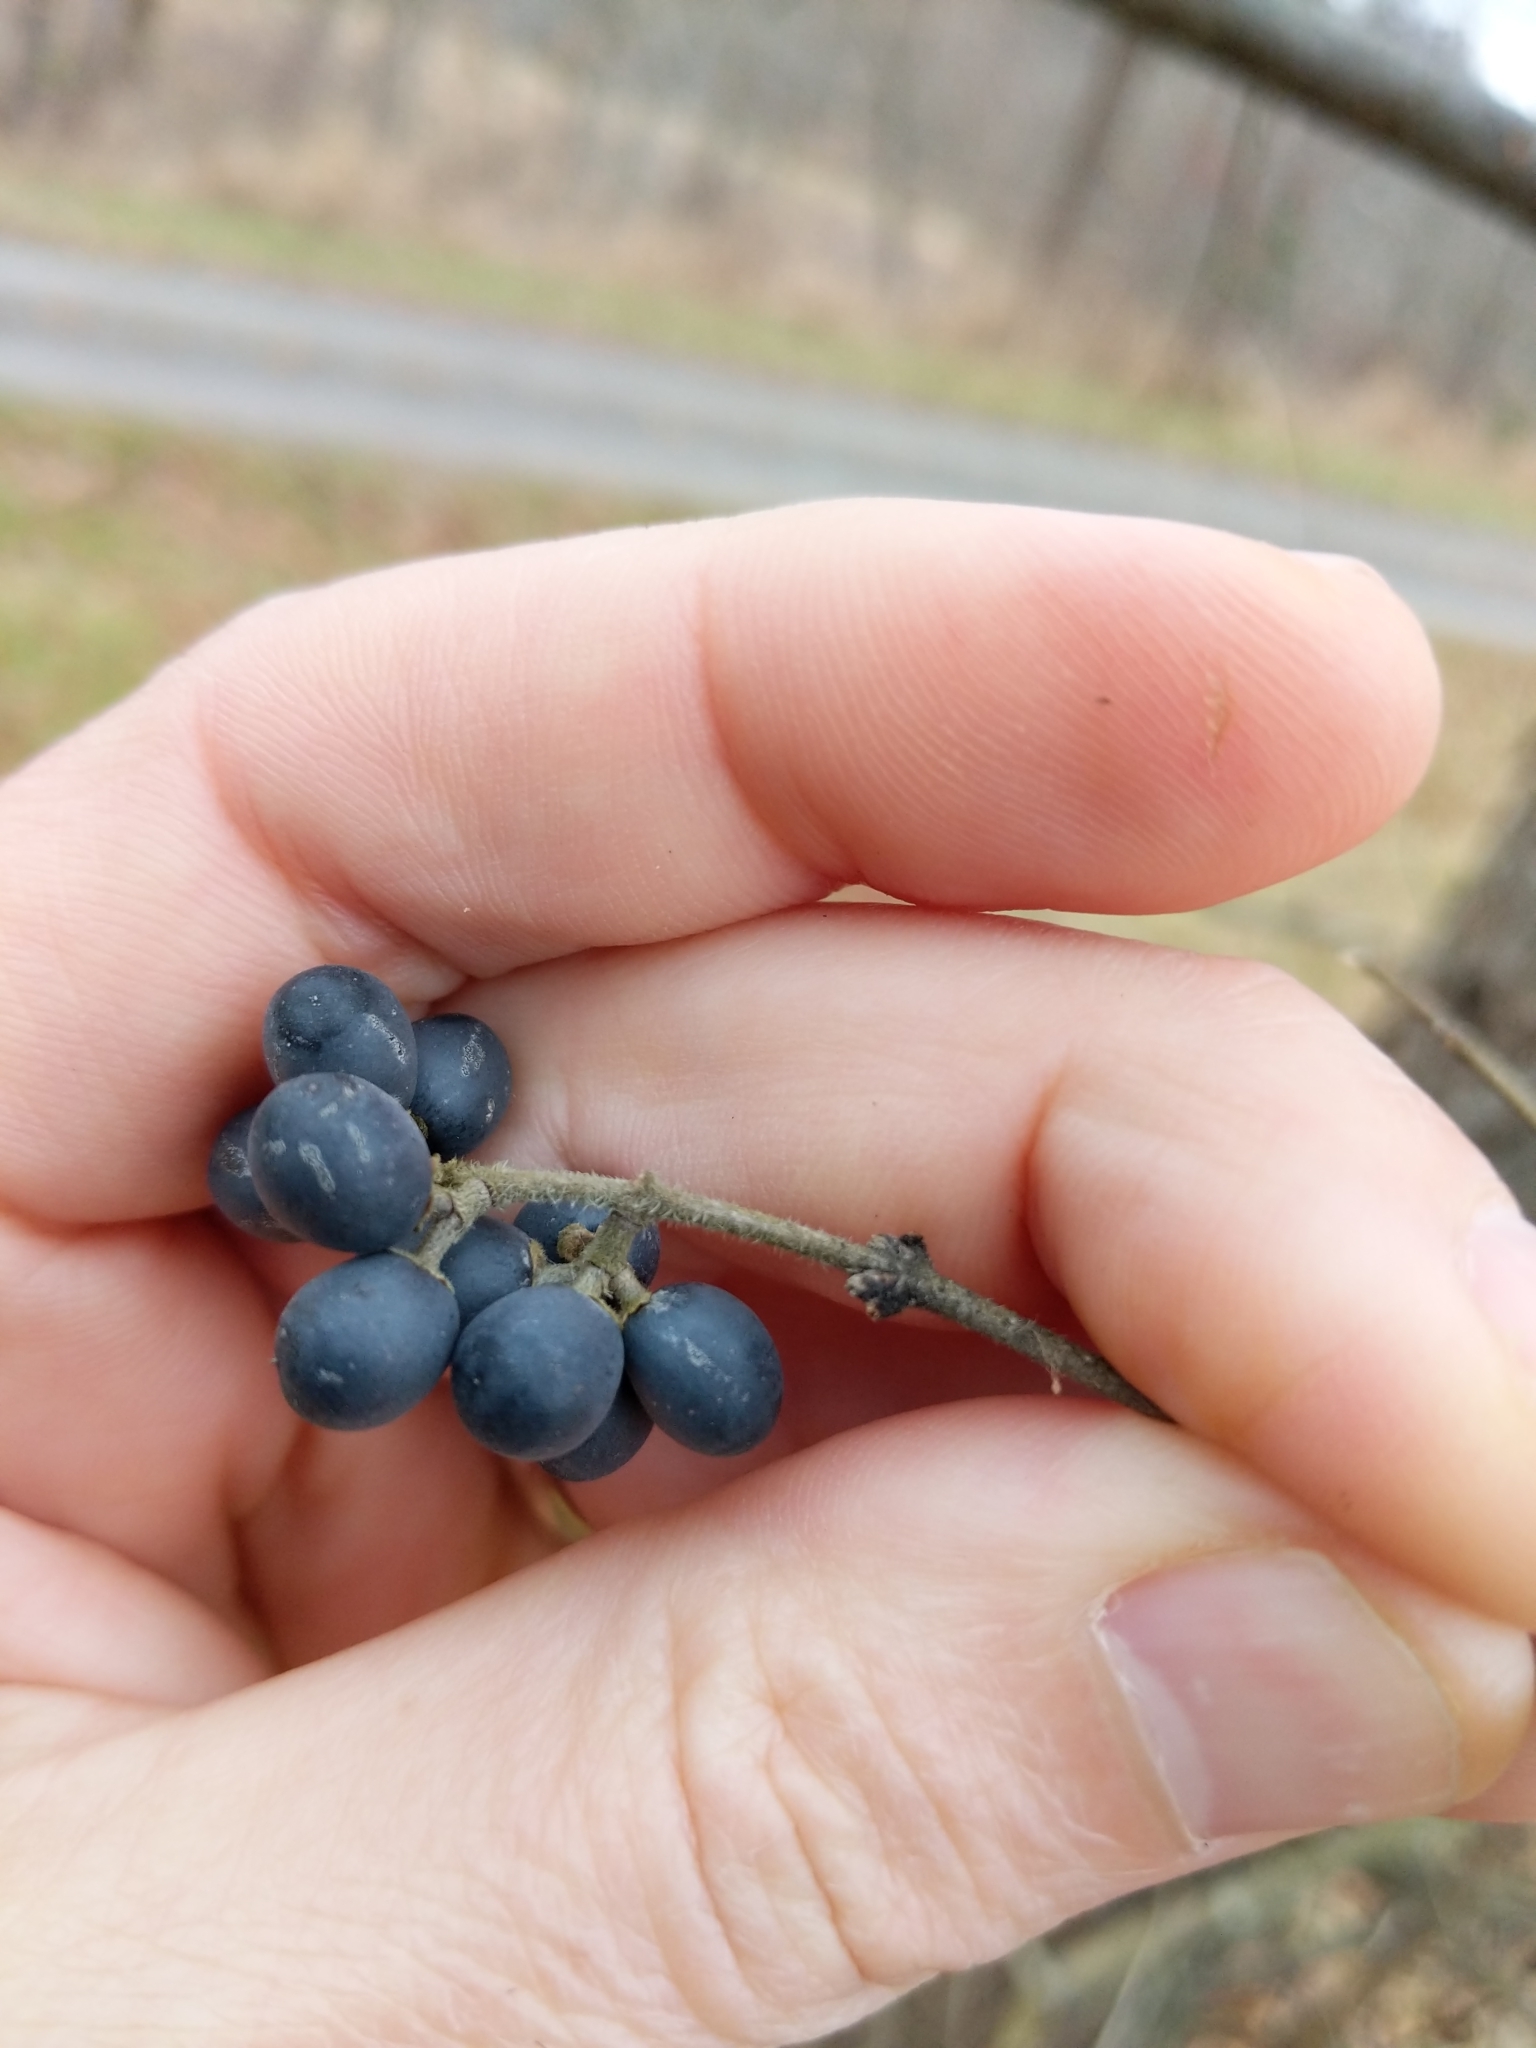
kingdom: Plantae
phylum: Tracheophyta
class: Magnoliopsida
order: Lamiales
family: Oleaceae
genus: Ligustrum
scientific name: Ligustrum obtusifolium
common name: Border privet
